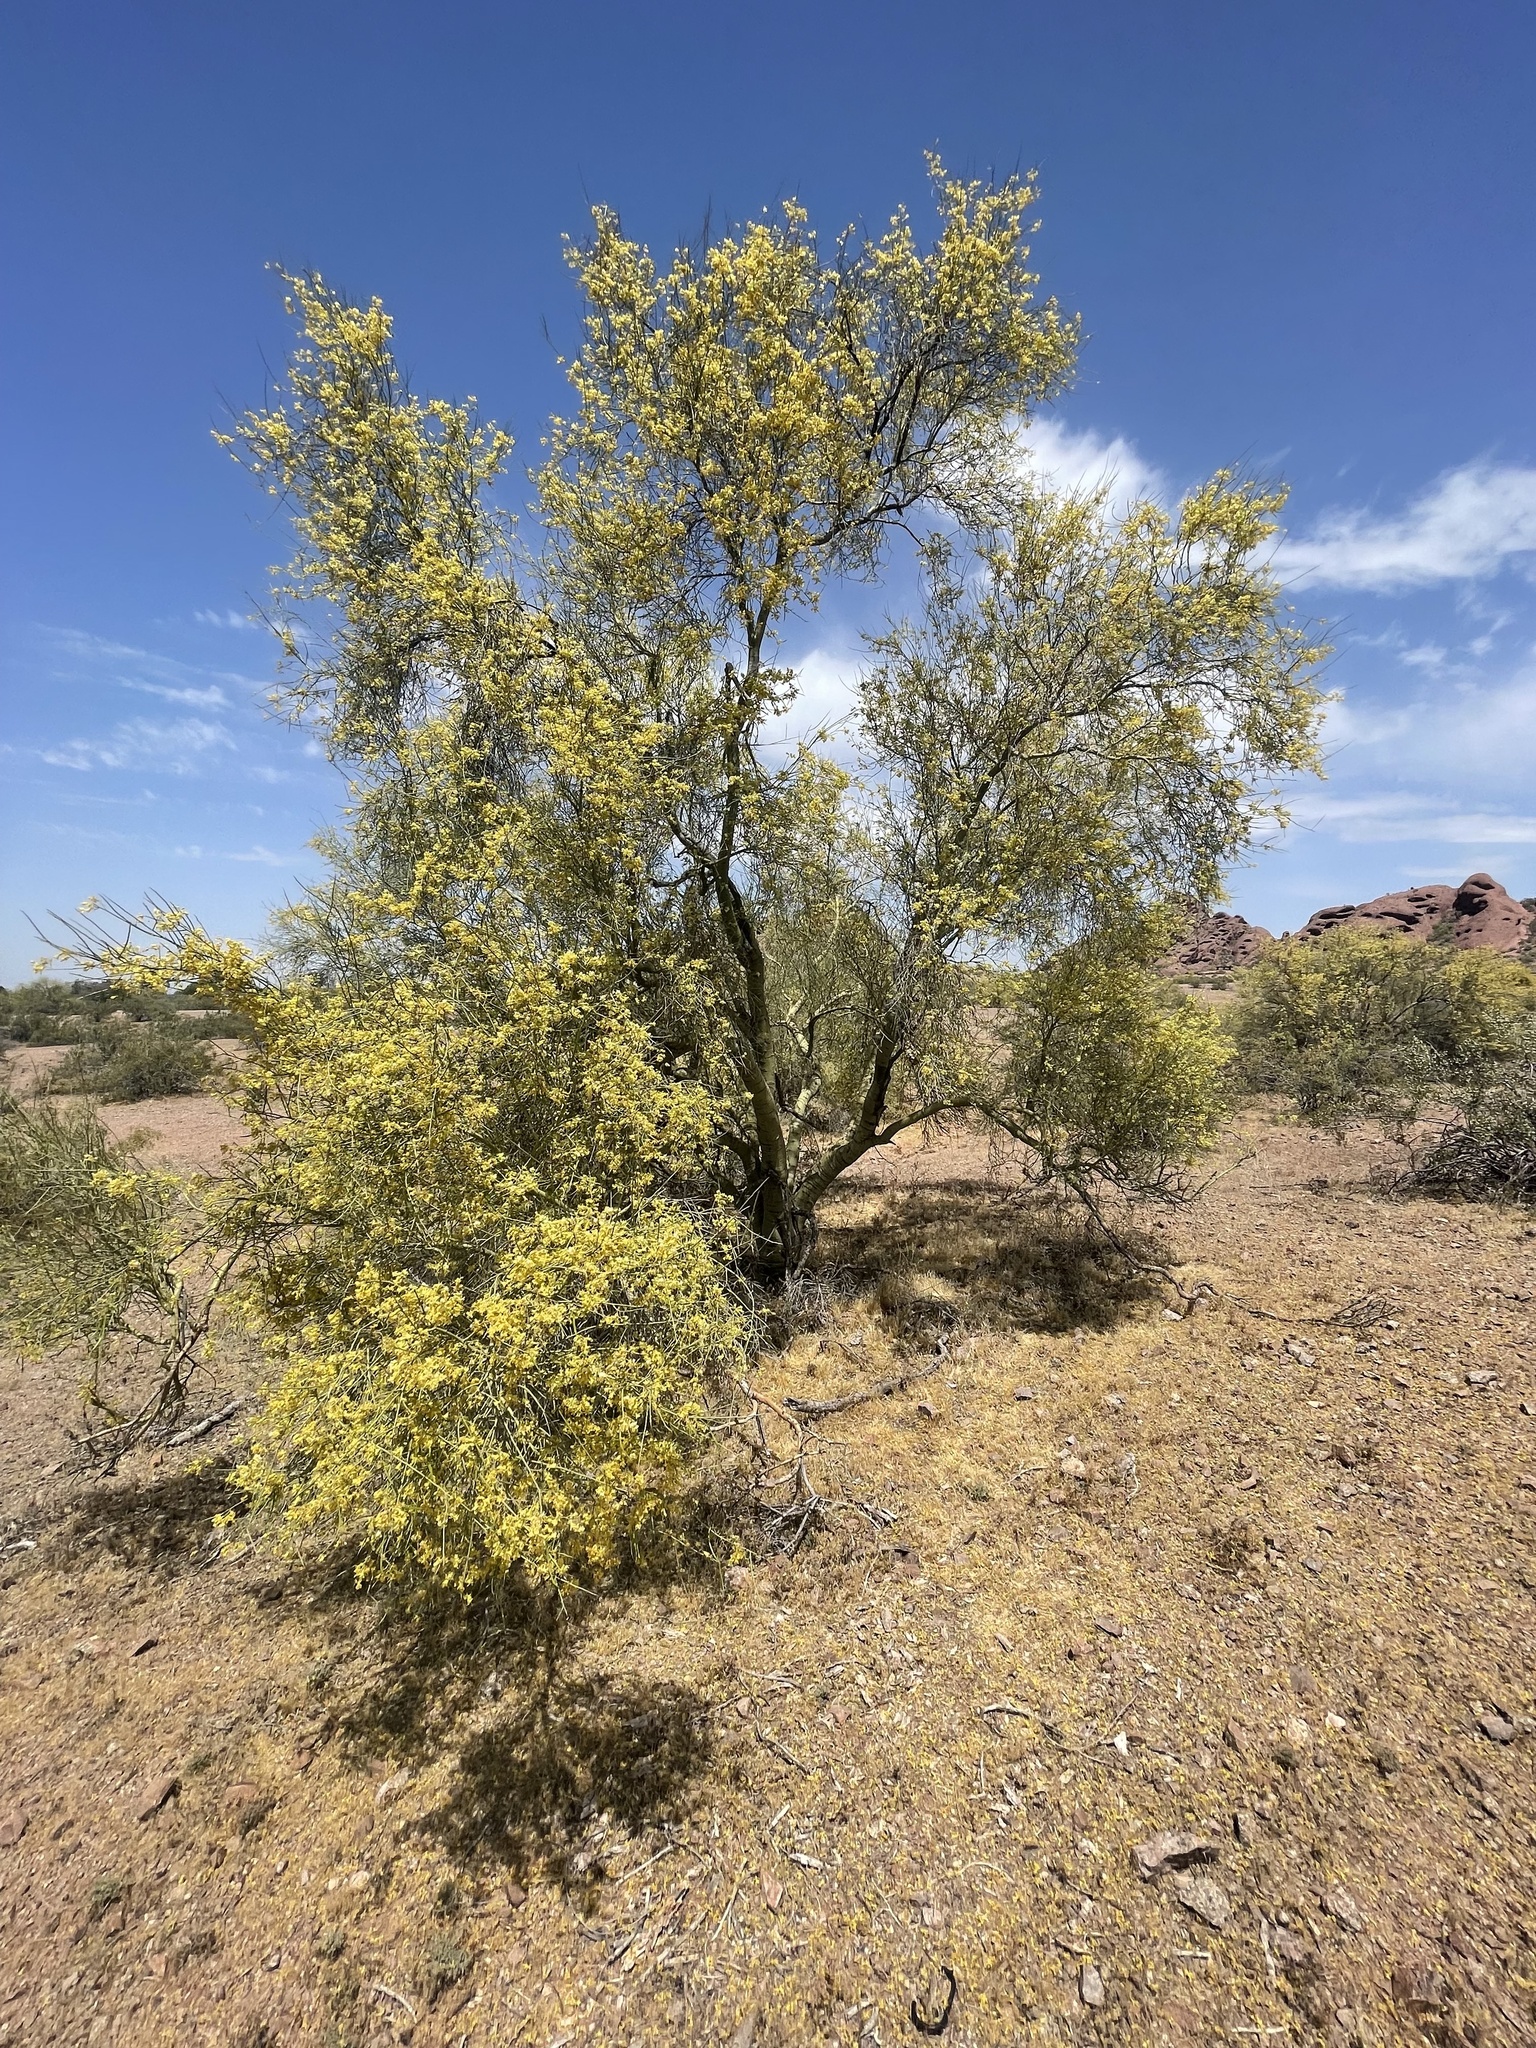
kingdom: Plantae
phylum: Tracheophyta
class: Magnoliopsida
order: Fabales
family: Fabaceae
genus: Parkinsonia
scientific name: Parkinsonia microphylla
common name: Yellow paloverde
